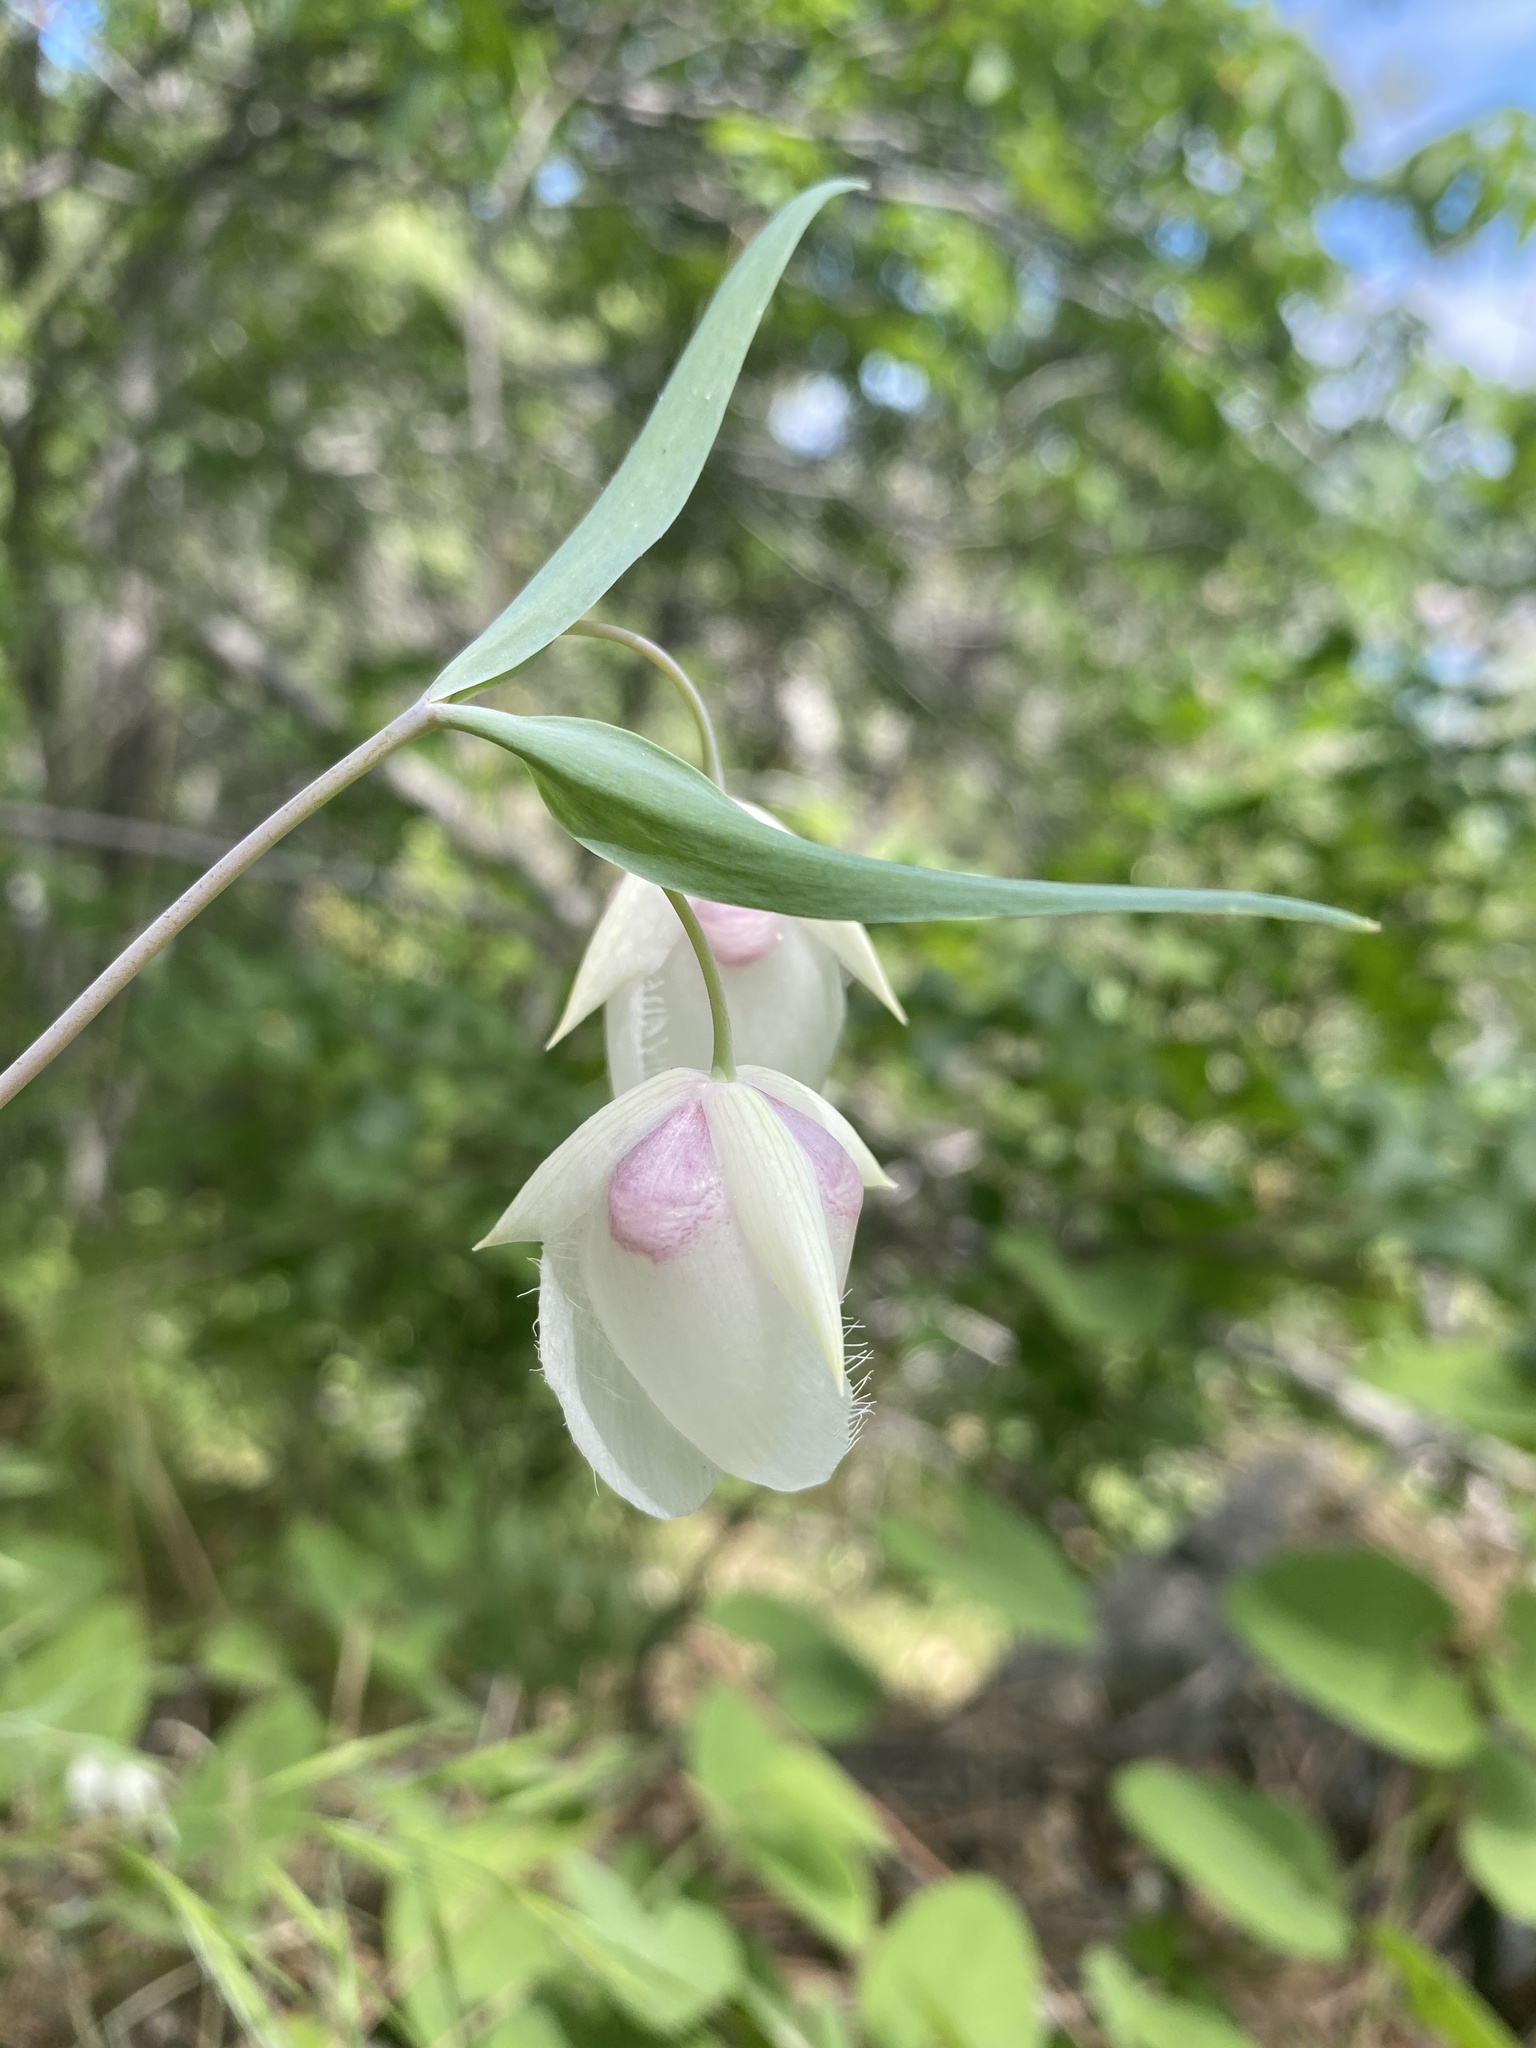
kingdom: Plantae
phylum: Tracheophyta
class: Liliopsida
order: Liliales
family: Liliaceae
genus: Calochortus
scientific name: Calochortus albus
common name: Fairy-lantern
